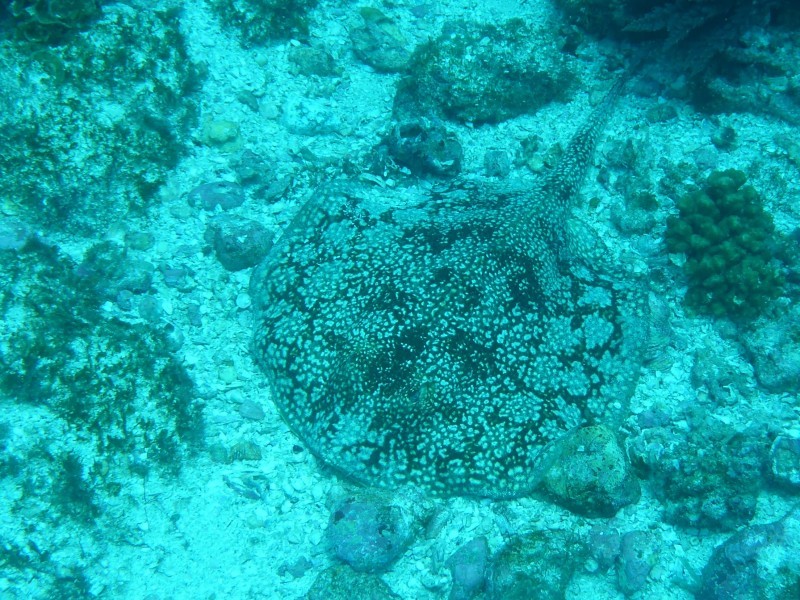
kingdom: Animalia
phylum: Chordata
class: Elasmobranchii
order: Myliobatiformes
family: Urotrygonidae
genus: Urobatis
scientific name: Urobatis tumbesensis
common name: Tumbes round stingray
